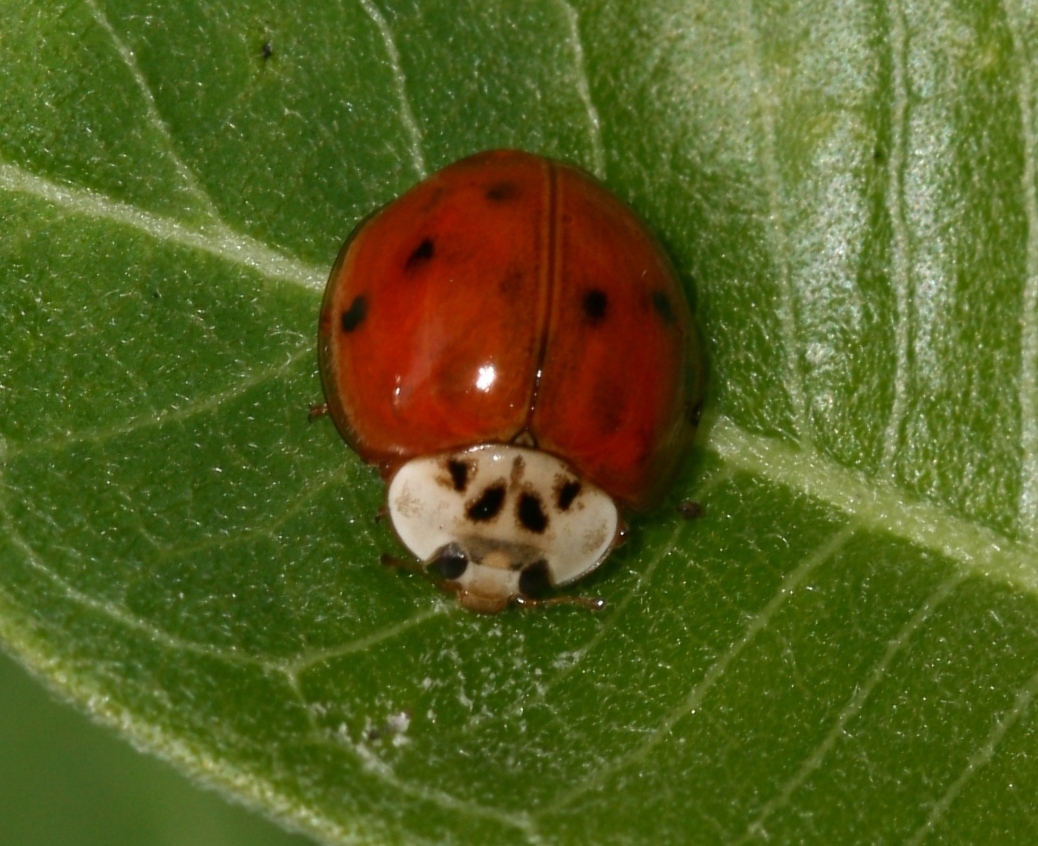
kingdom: Animalia
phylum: Arthropoda
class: Insecta
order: Coleoptera
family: Coccinellidae
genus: Harmonia
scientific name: Harmonia axyridis
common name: Harlequin ladybird
